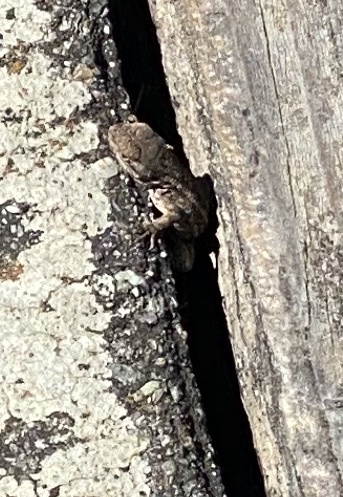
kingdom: Animalia
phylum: Chordata
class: Squamata
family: Phrynosomatidae
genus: Sceloporus
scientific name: Sceloporus occidentalis
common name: Western fence lizard
